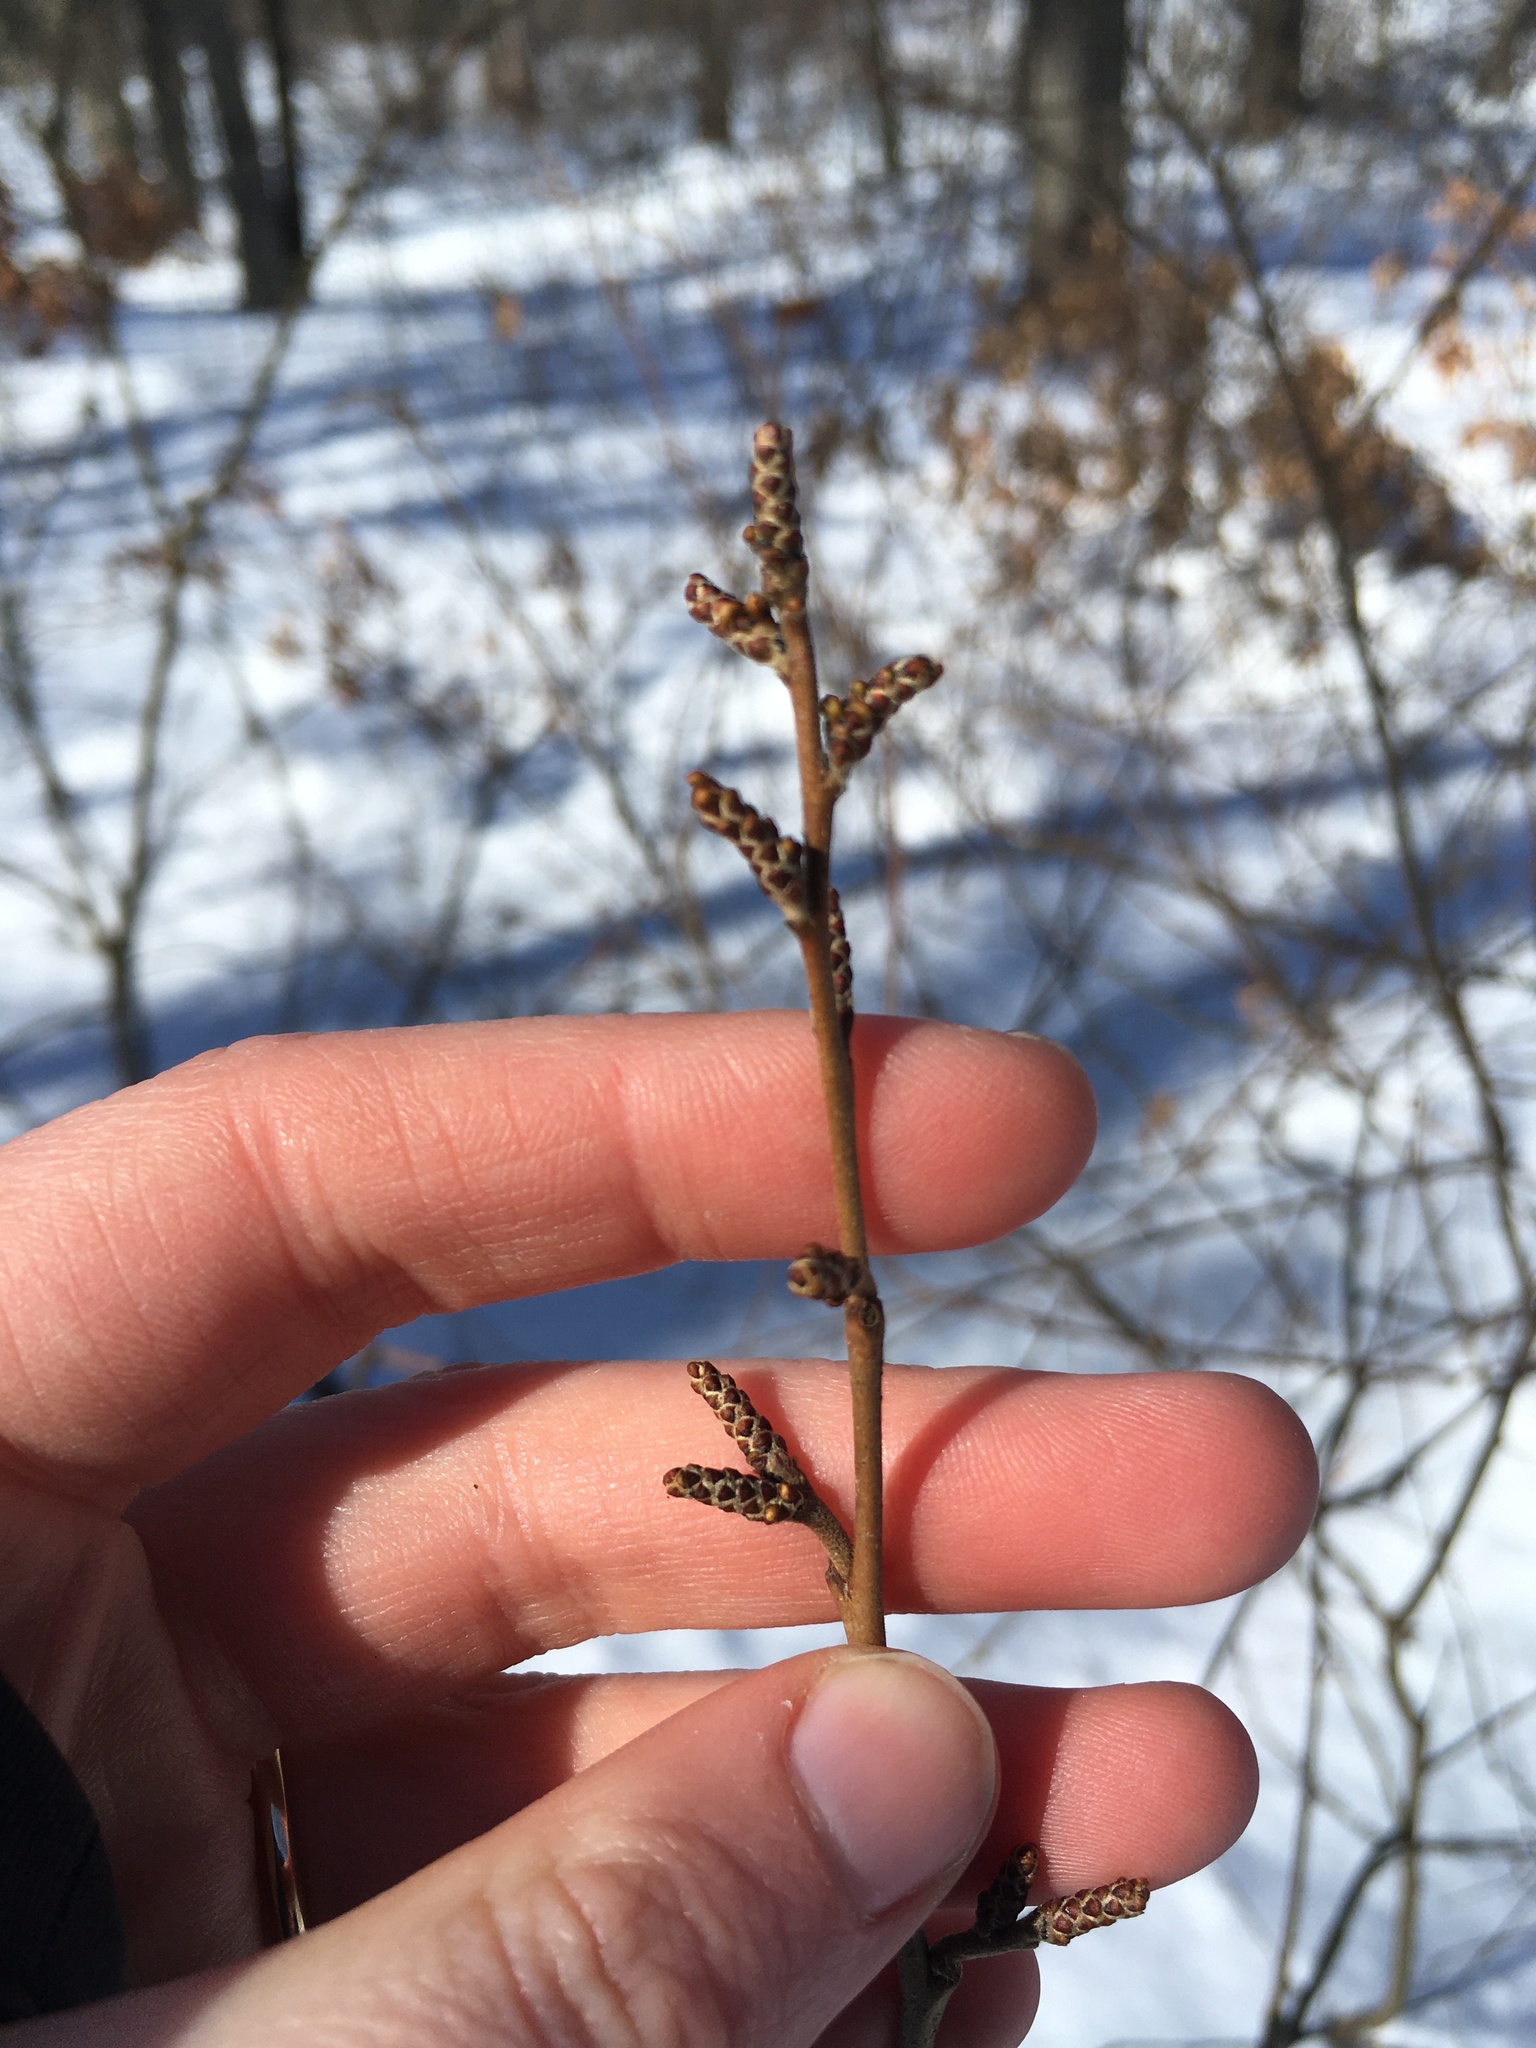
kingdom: Plantae
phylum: Tracheophyta
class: Magnoliopsida
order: Sapindales
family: Anacardiaceae
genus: Rhus
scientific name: Rhus aromatica
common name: Aromatic sumac
